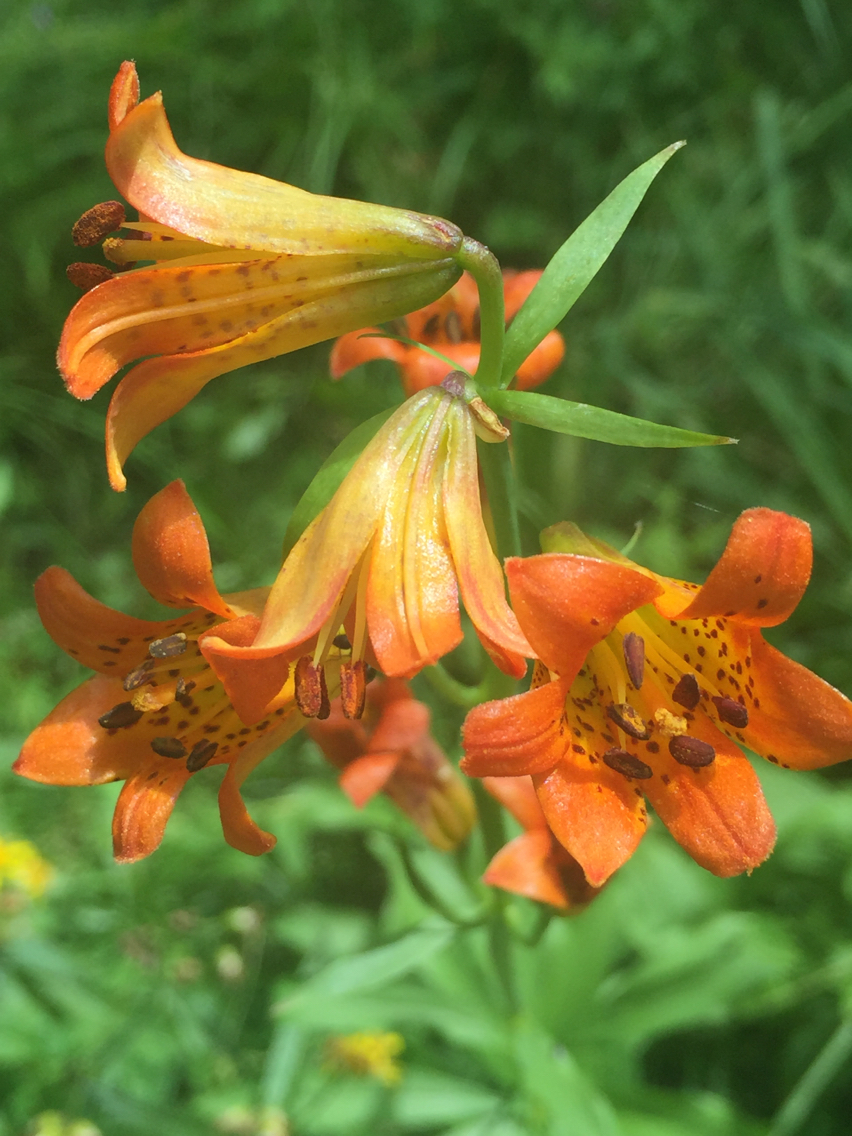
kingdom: Plantae
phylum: Tracheophyta
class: Liliopsida
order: Liliales
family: Liliaceae
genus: Lilium
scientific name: Lilium parvum
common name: Alpine lily
